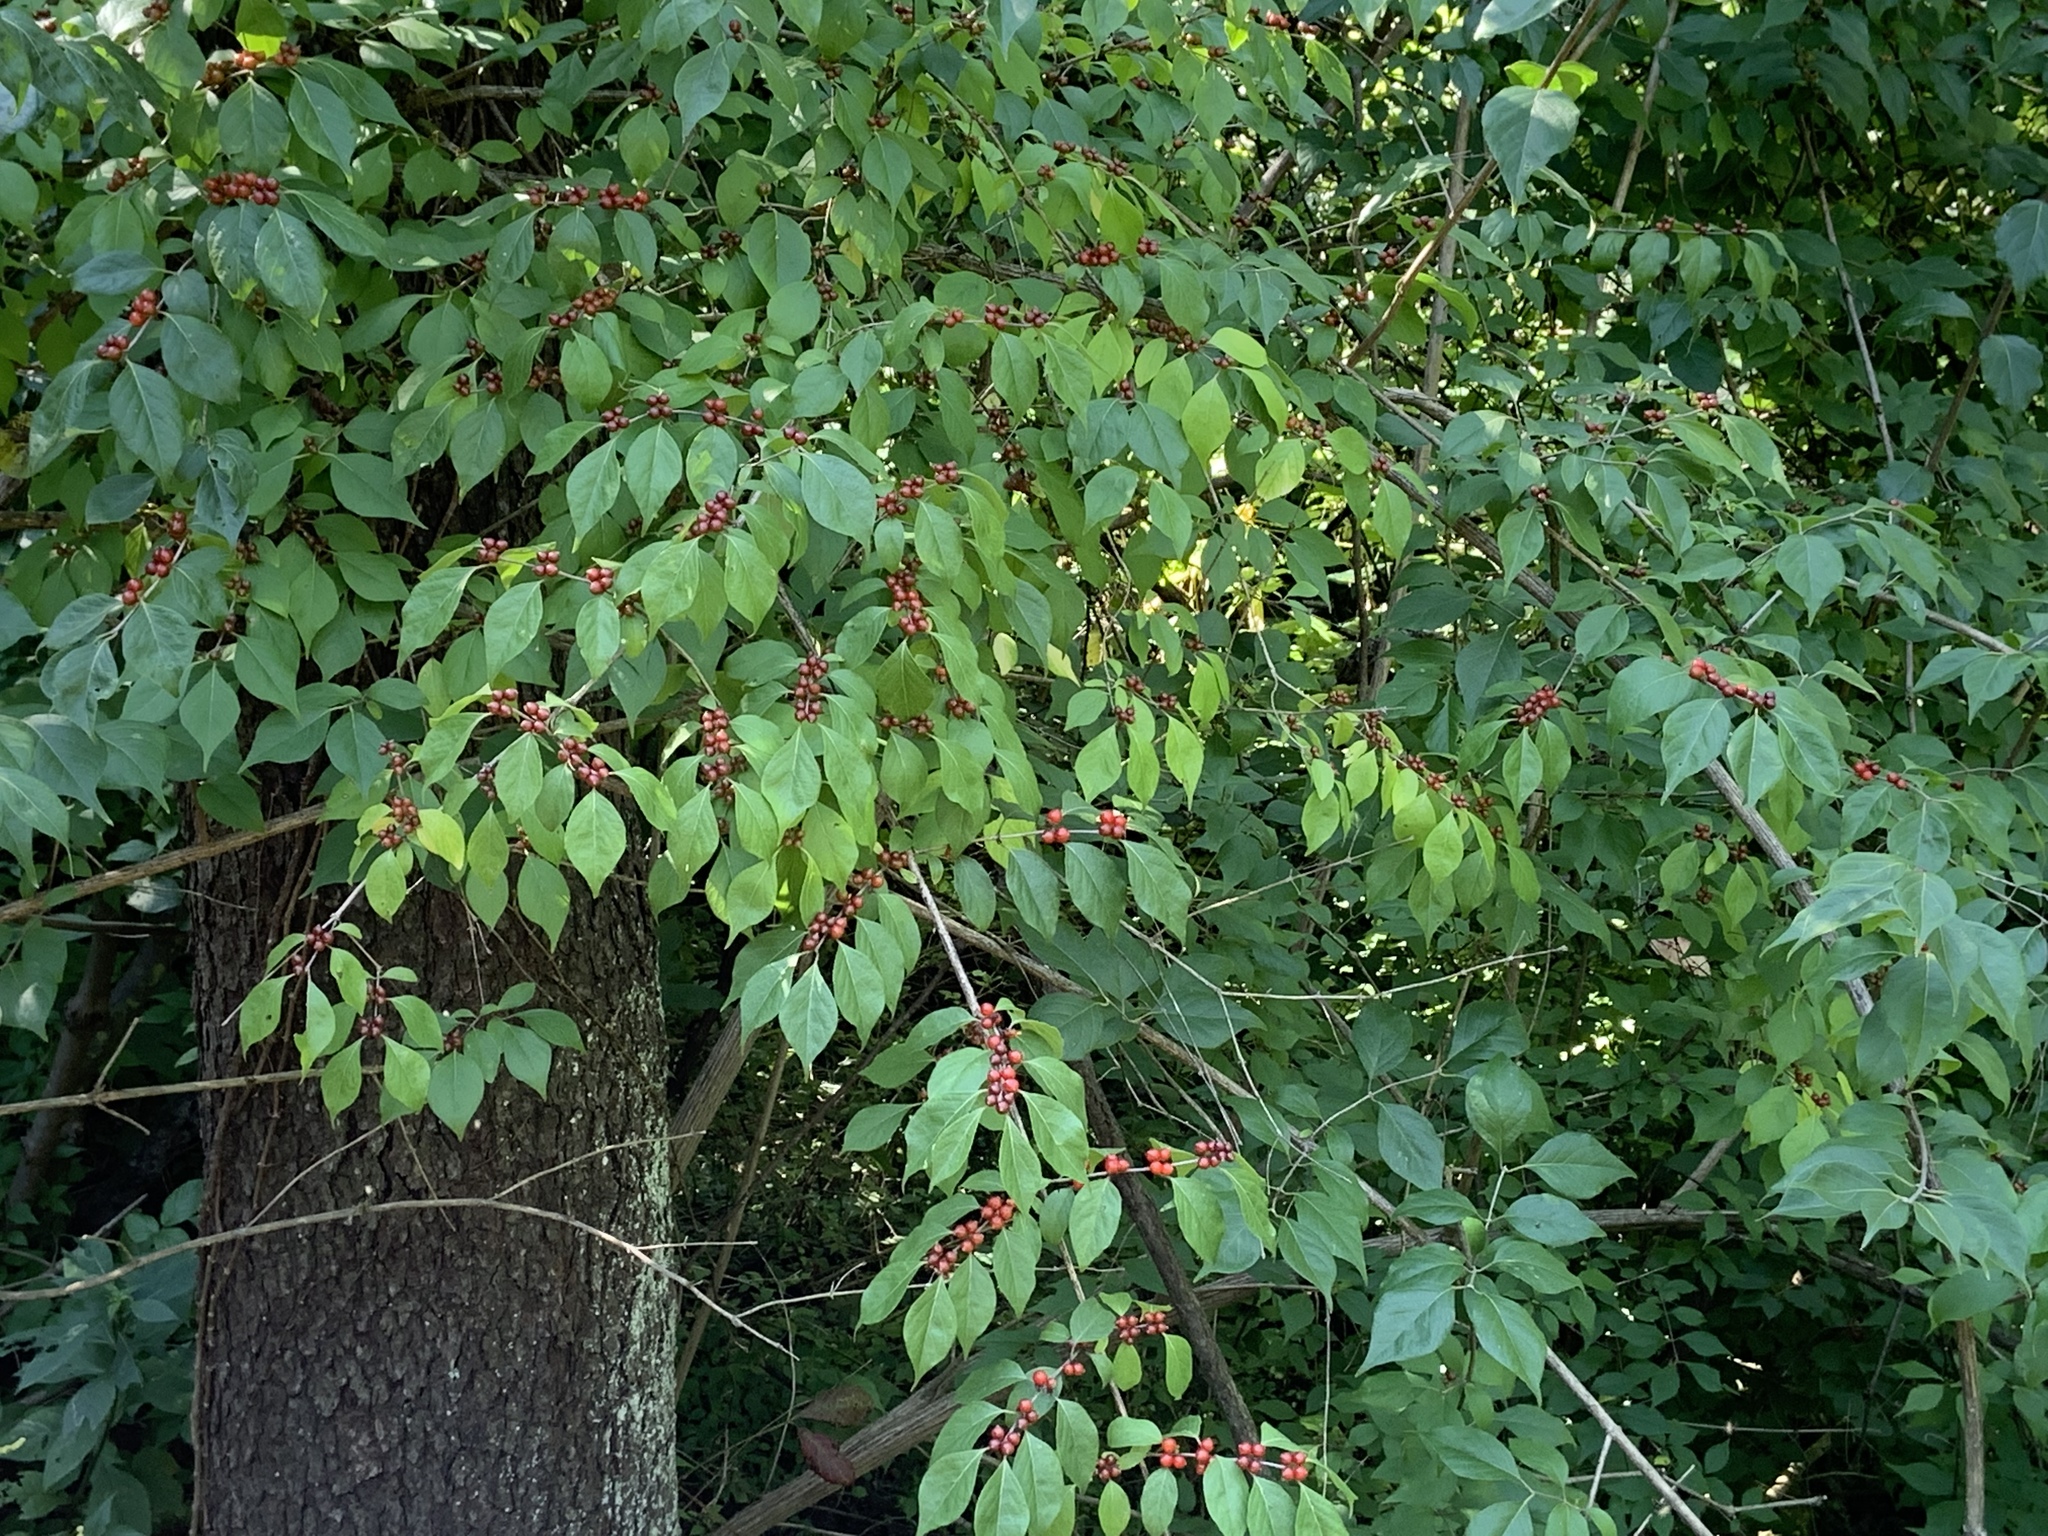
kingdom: Plantae
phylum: Tracheophyta
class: Magnoliopsida
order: Dipsacales
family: Caprifoliaceae
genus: Lonicera
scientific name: Lonicera maackii
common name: Amur honeysuckle
